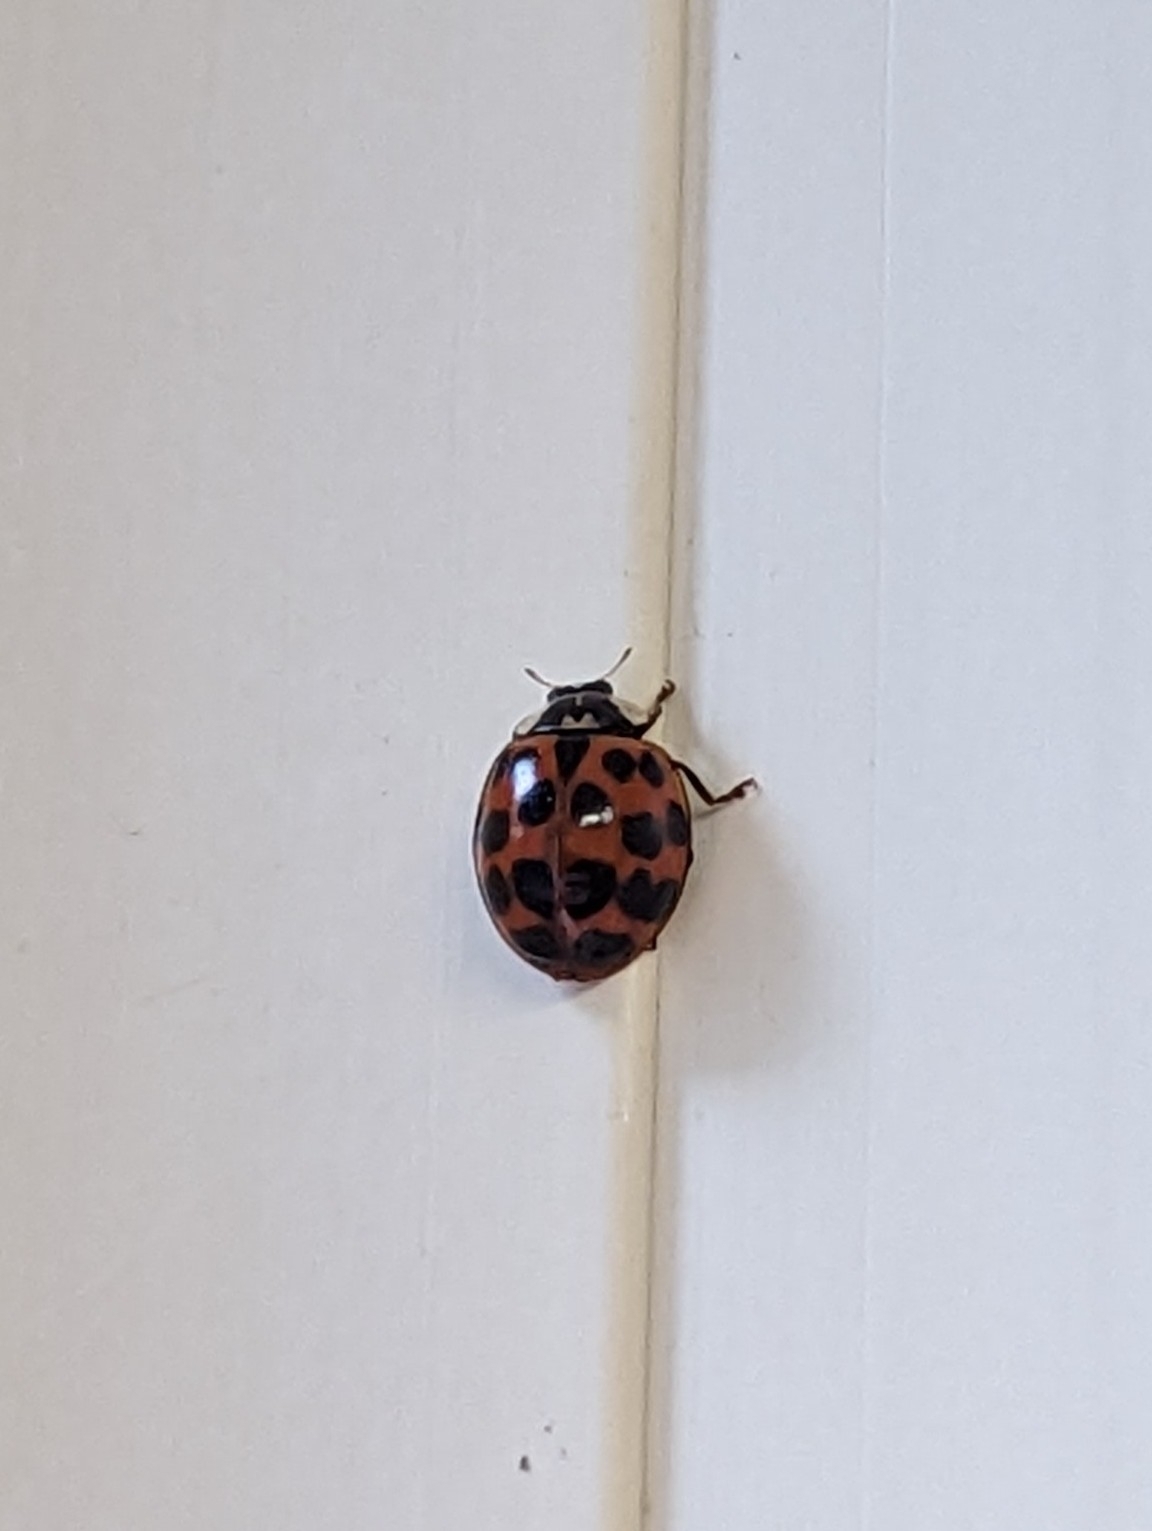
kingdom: Animalia
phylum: Arthropoda
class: Insecta
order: Coleoptera
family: Coccinellidae
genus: Harmonia
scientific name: Harmonia axyridis
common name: Harlequin ladybird
